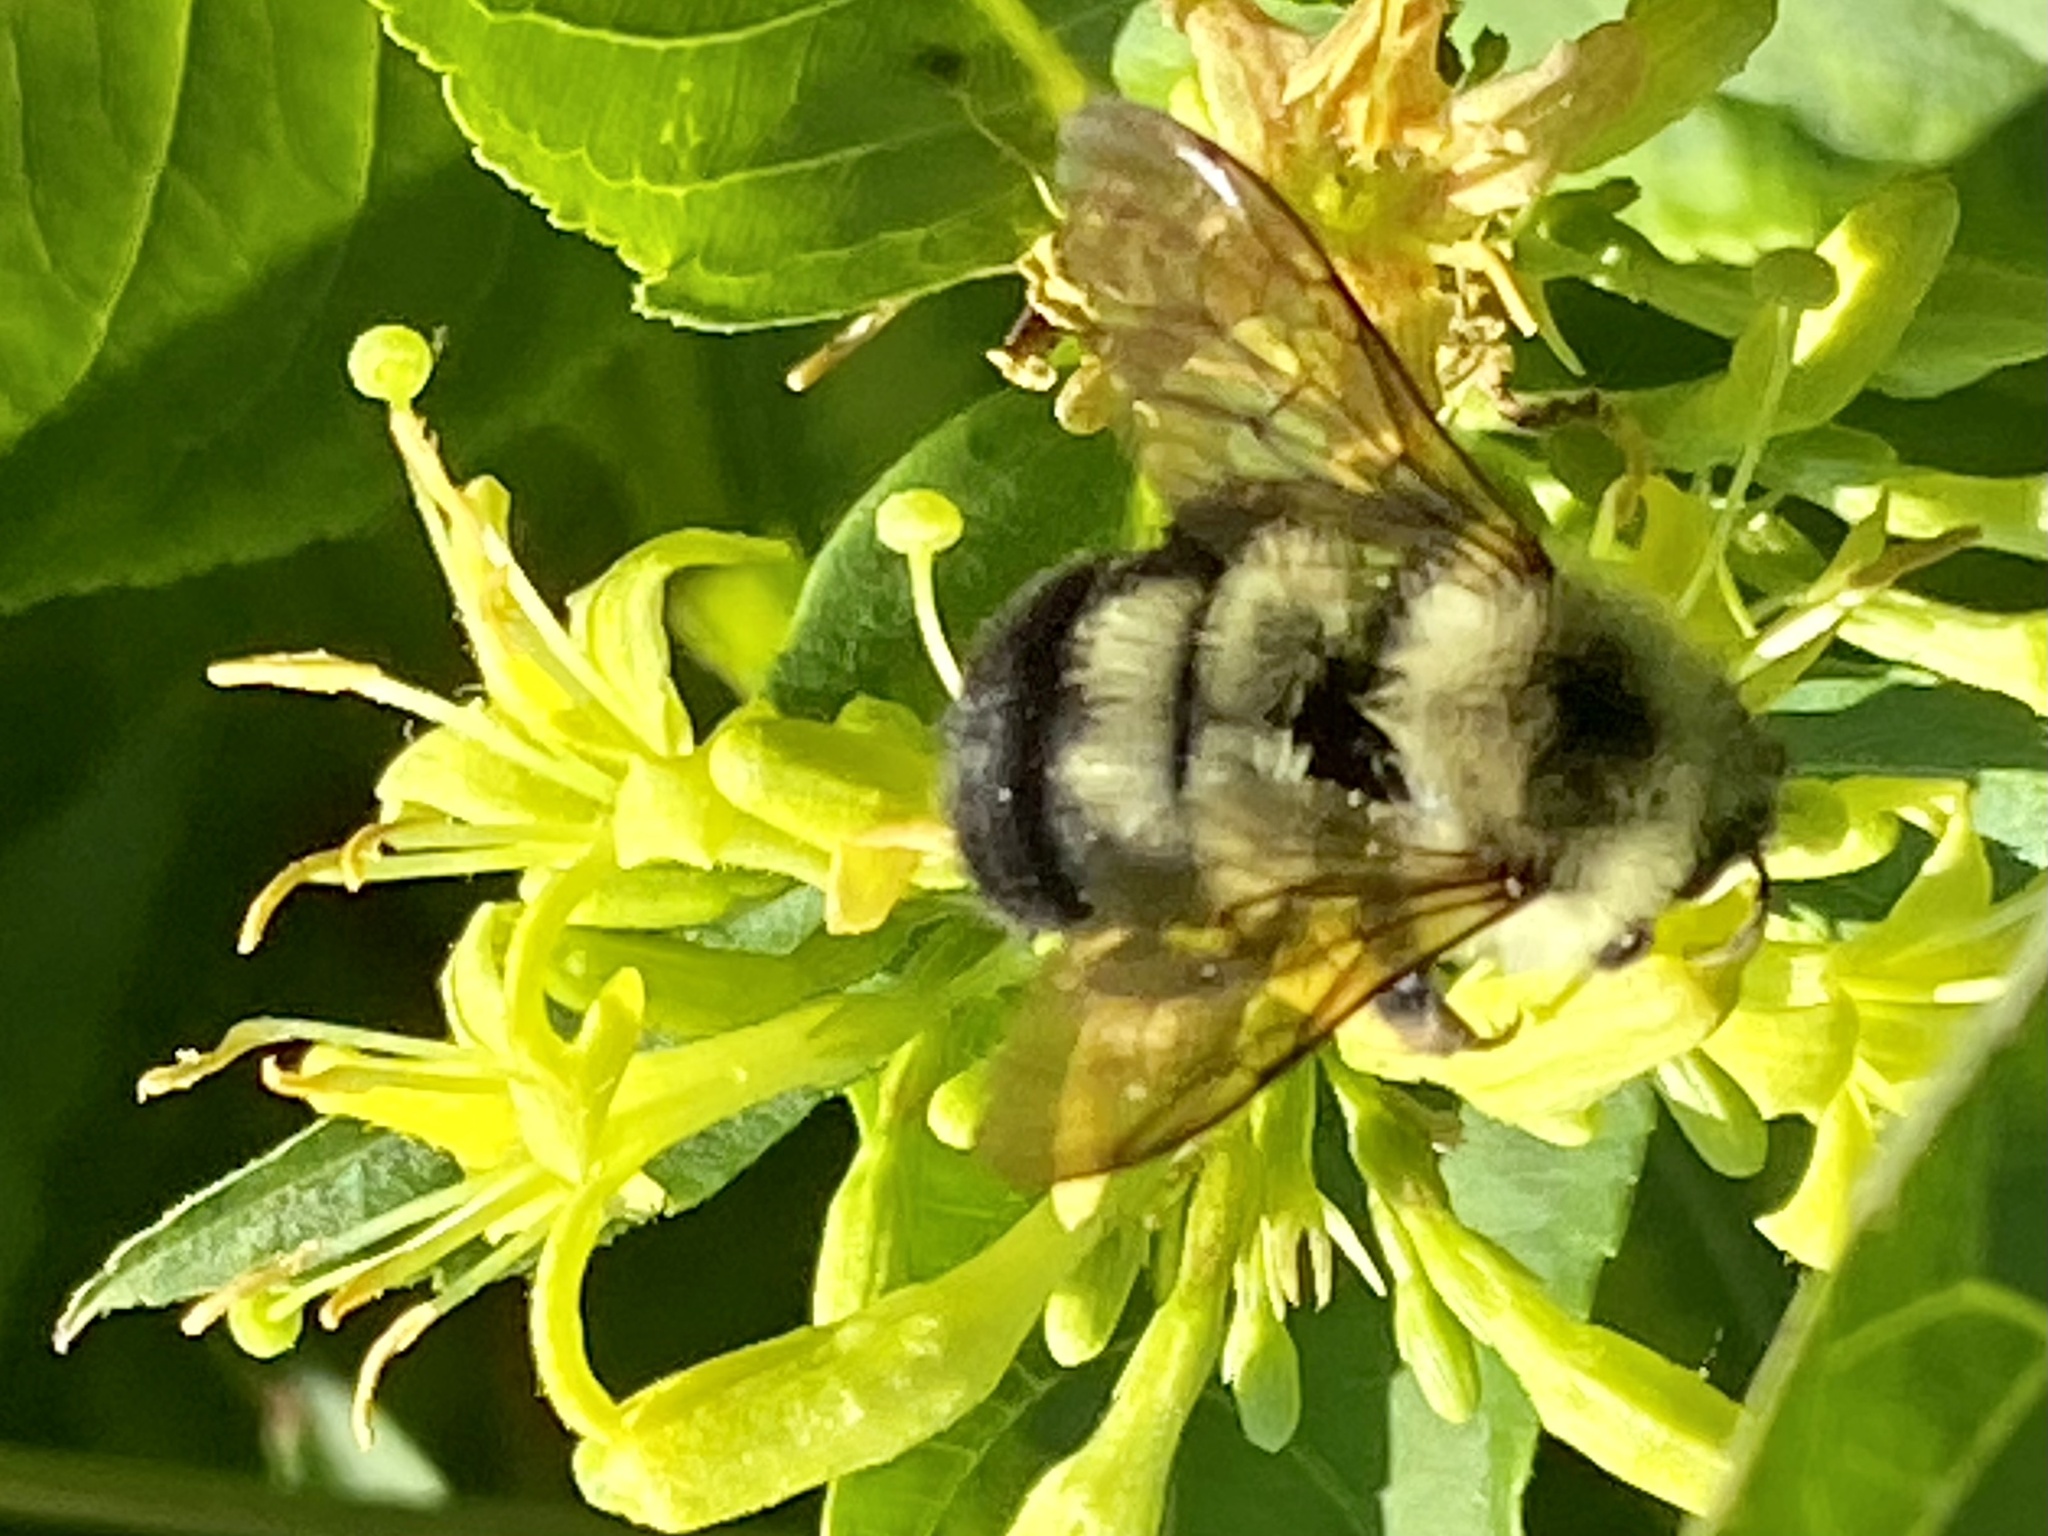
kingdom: Animalia
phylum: Arthropoda
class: Insecta
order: Hymenoptera
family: Apidae
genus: Bombus
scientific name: Bombus bimaculatus
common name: Two-spotted bumble bee
